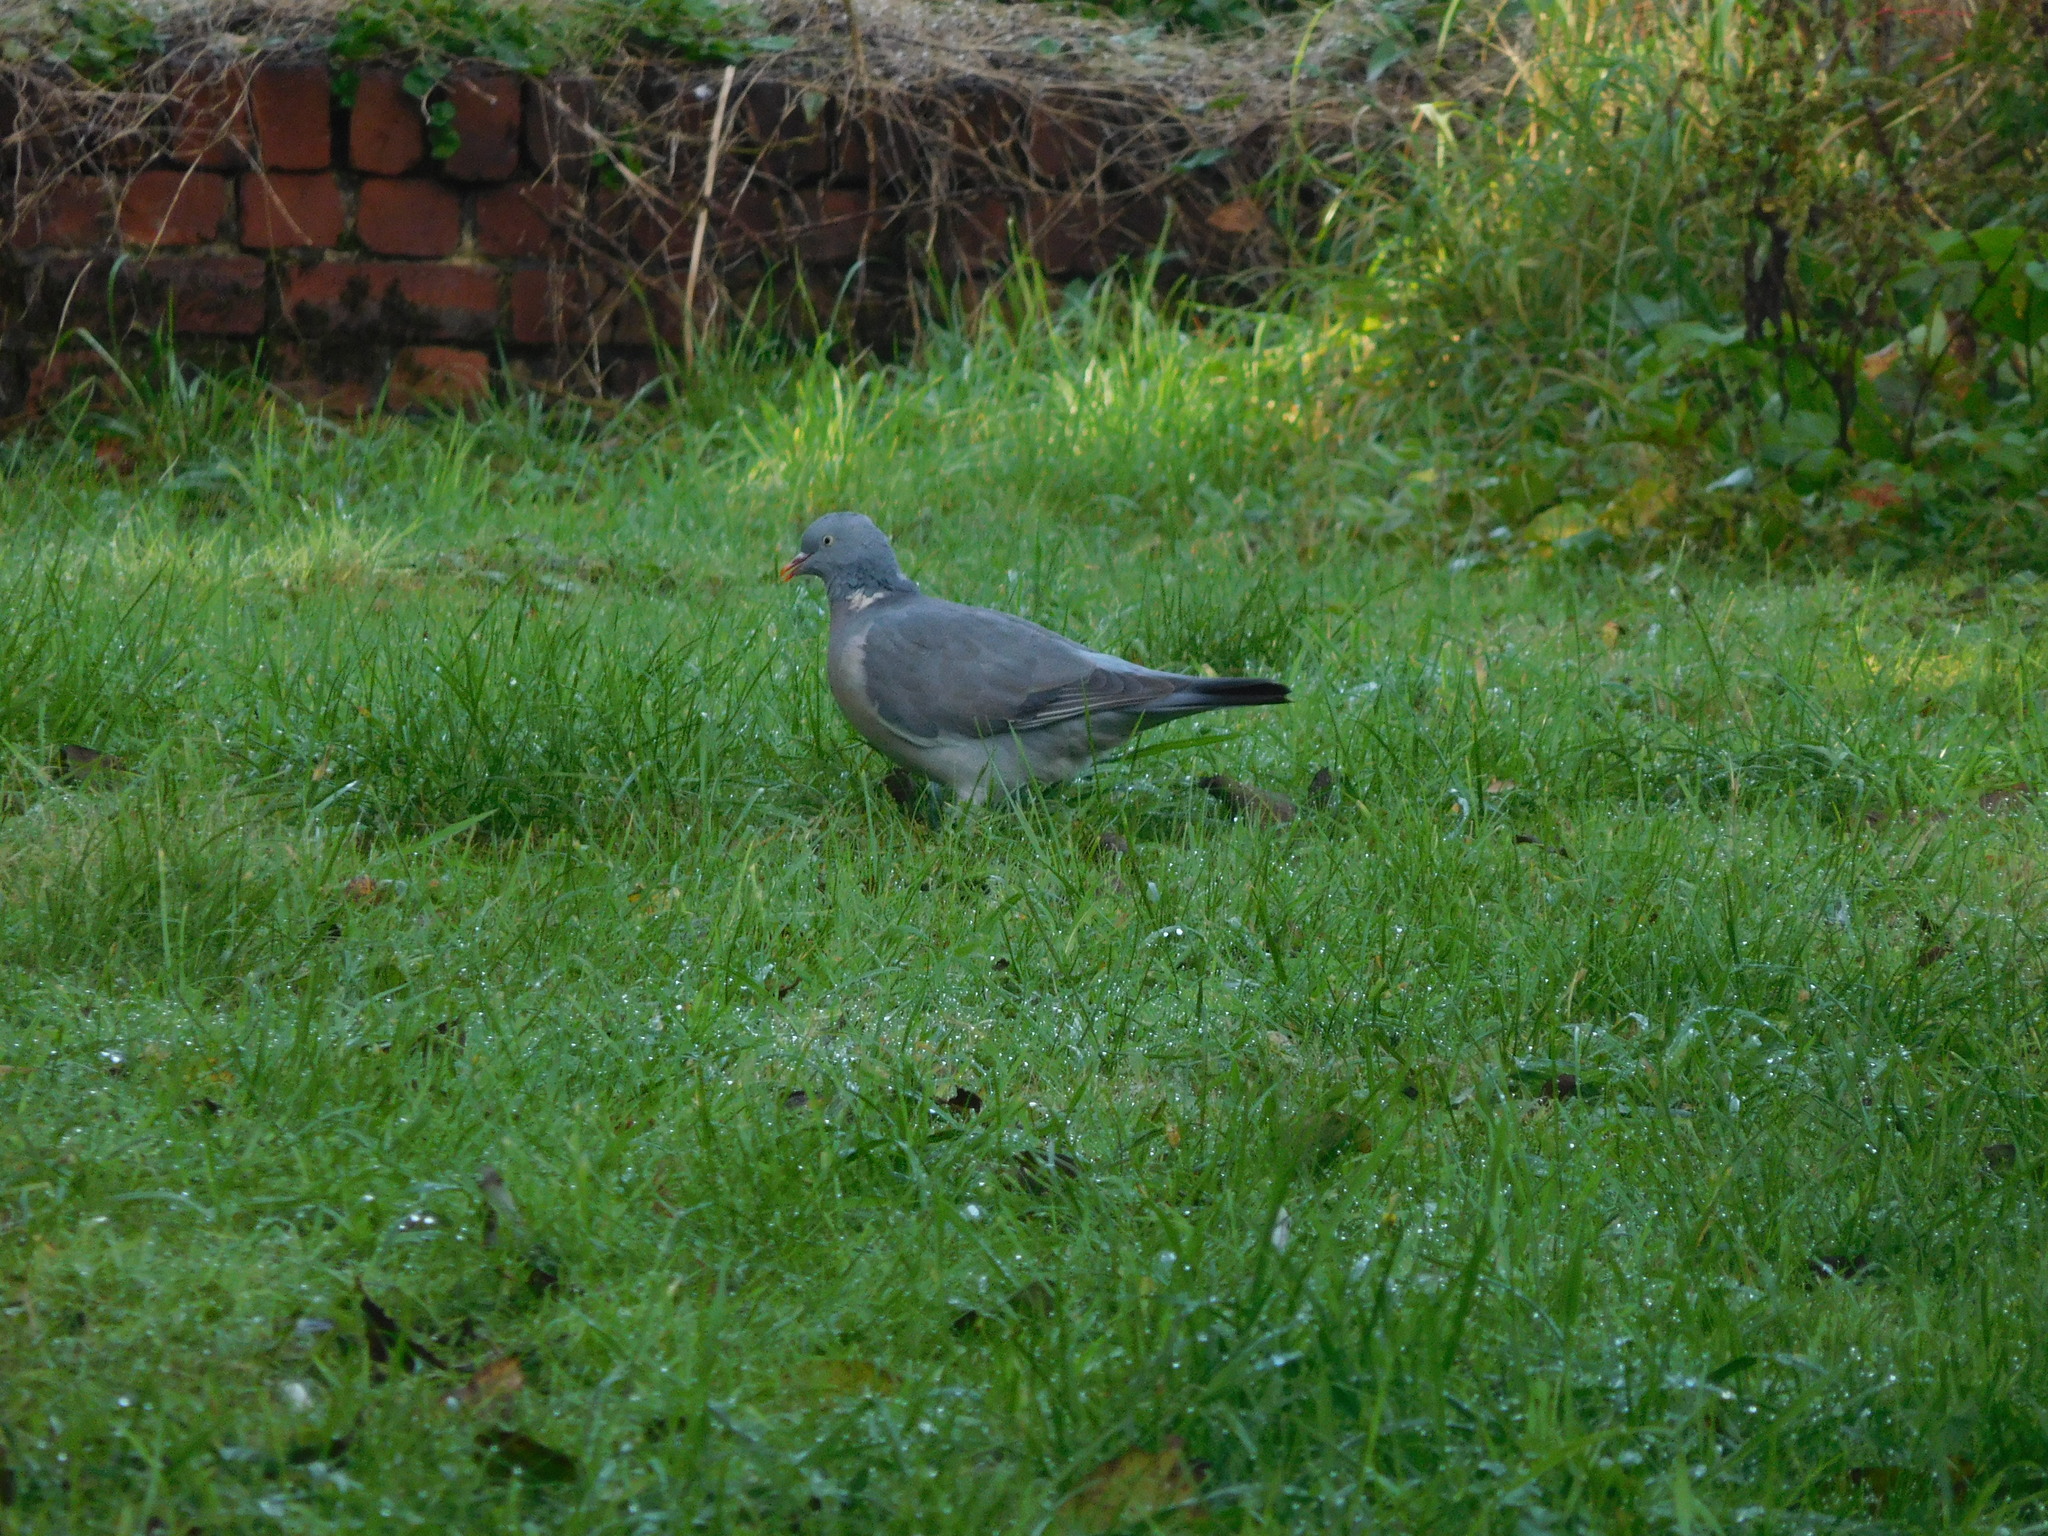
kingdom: Animalia
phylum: Chordata
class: Aves
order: Columbiformes
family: Columbidae
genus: Columba
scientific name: Columba palumbus
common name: Common wood pigeon
